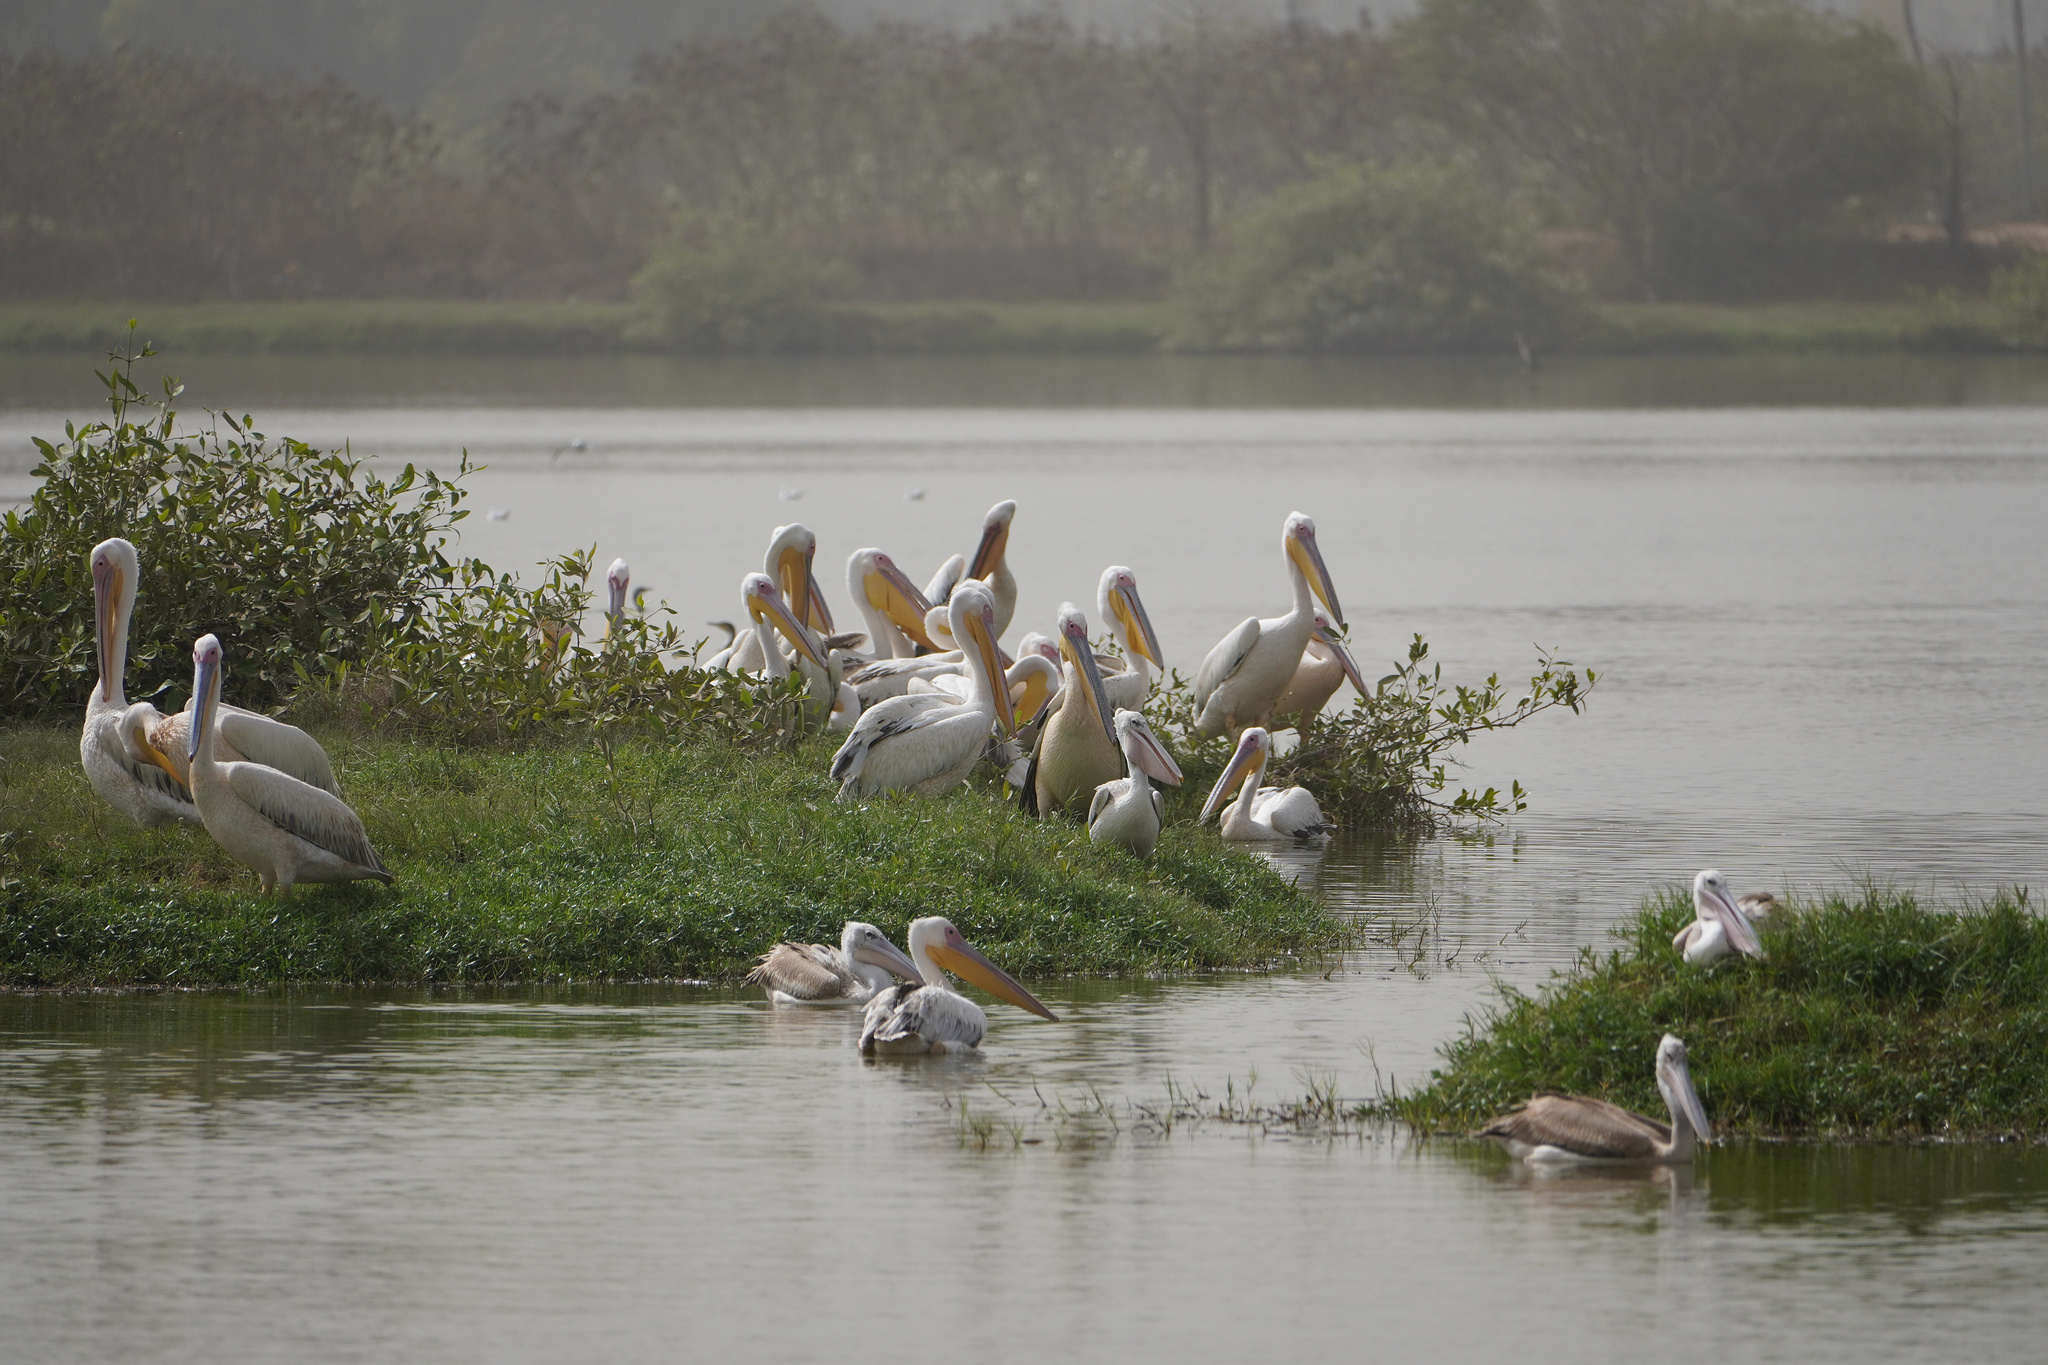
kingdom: Animalia
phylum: Chordata
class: Aves
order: Pelecaniformes
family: Pelecanidae
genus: Pelecanus
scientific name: Pelecanus onocrotalus
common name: Great white pelican
